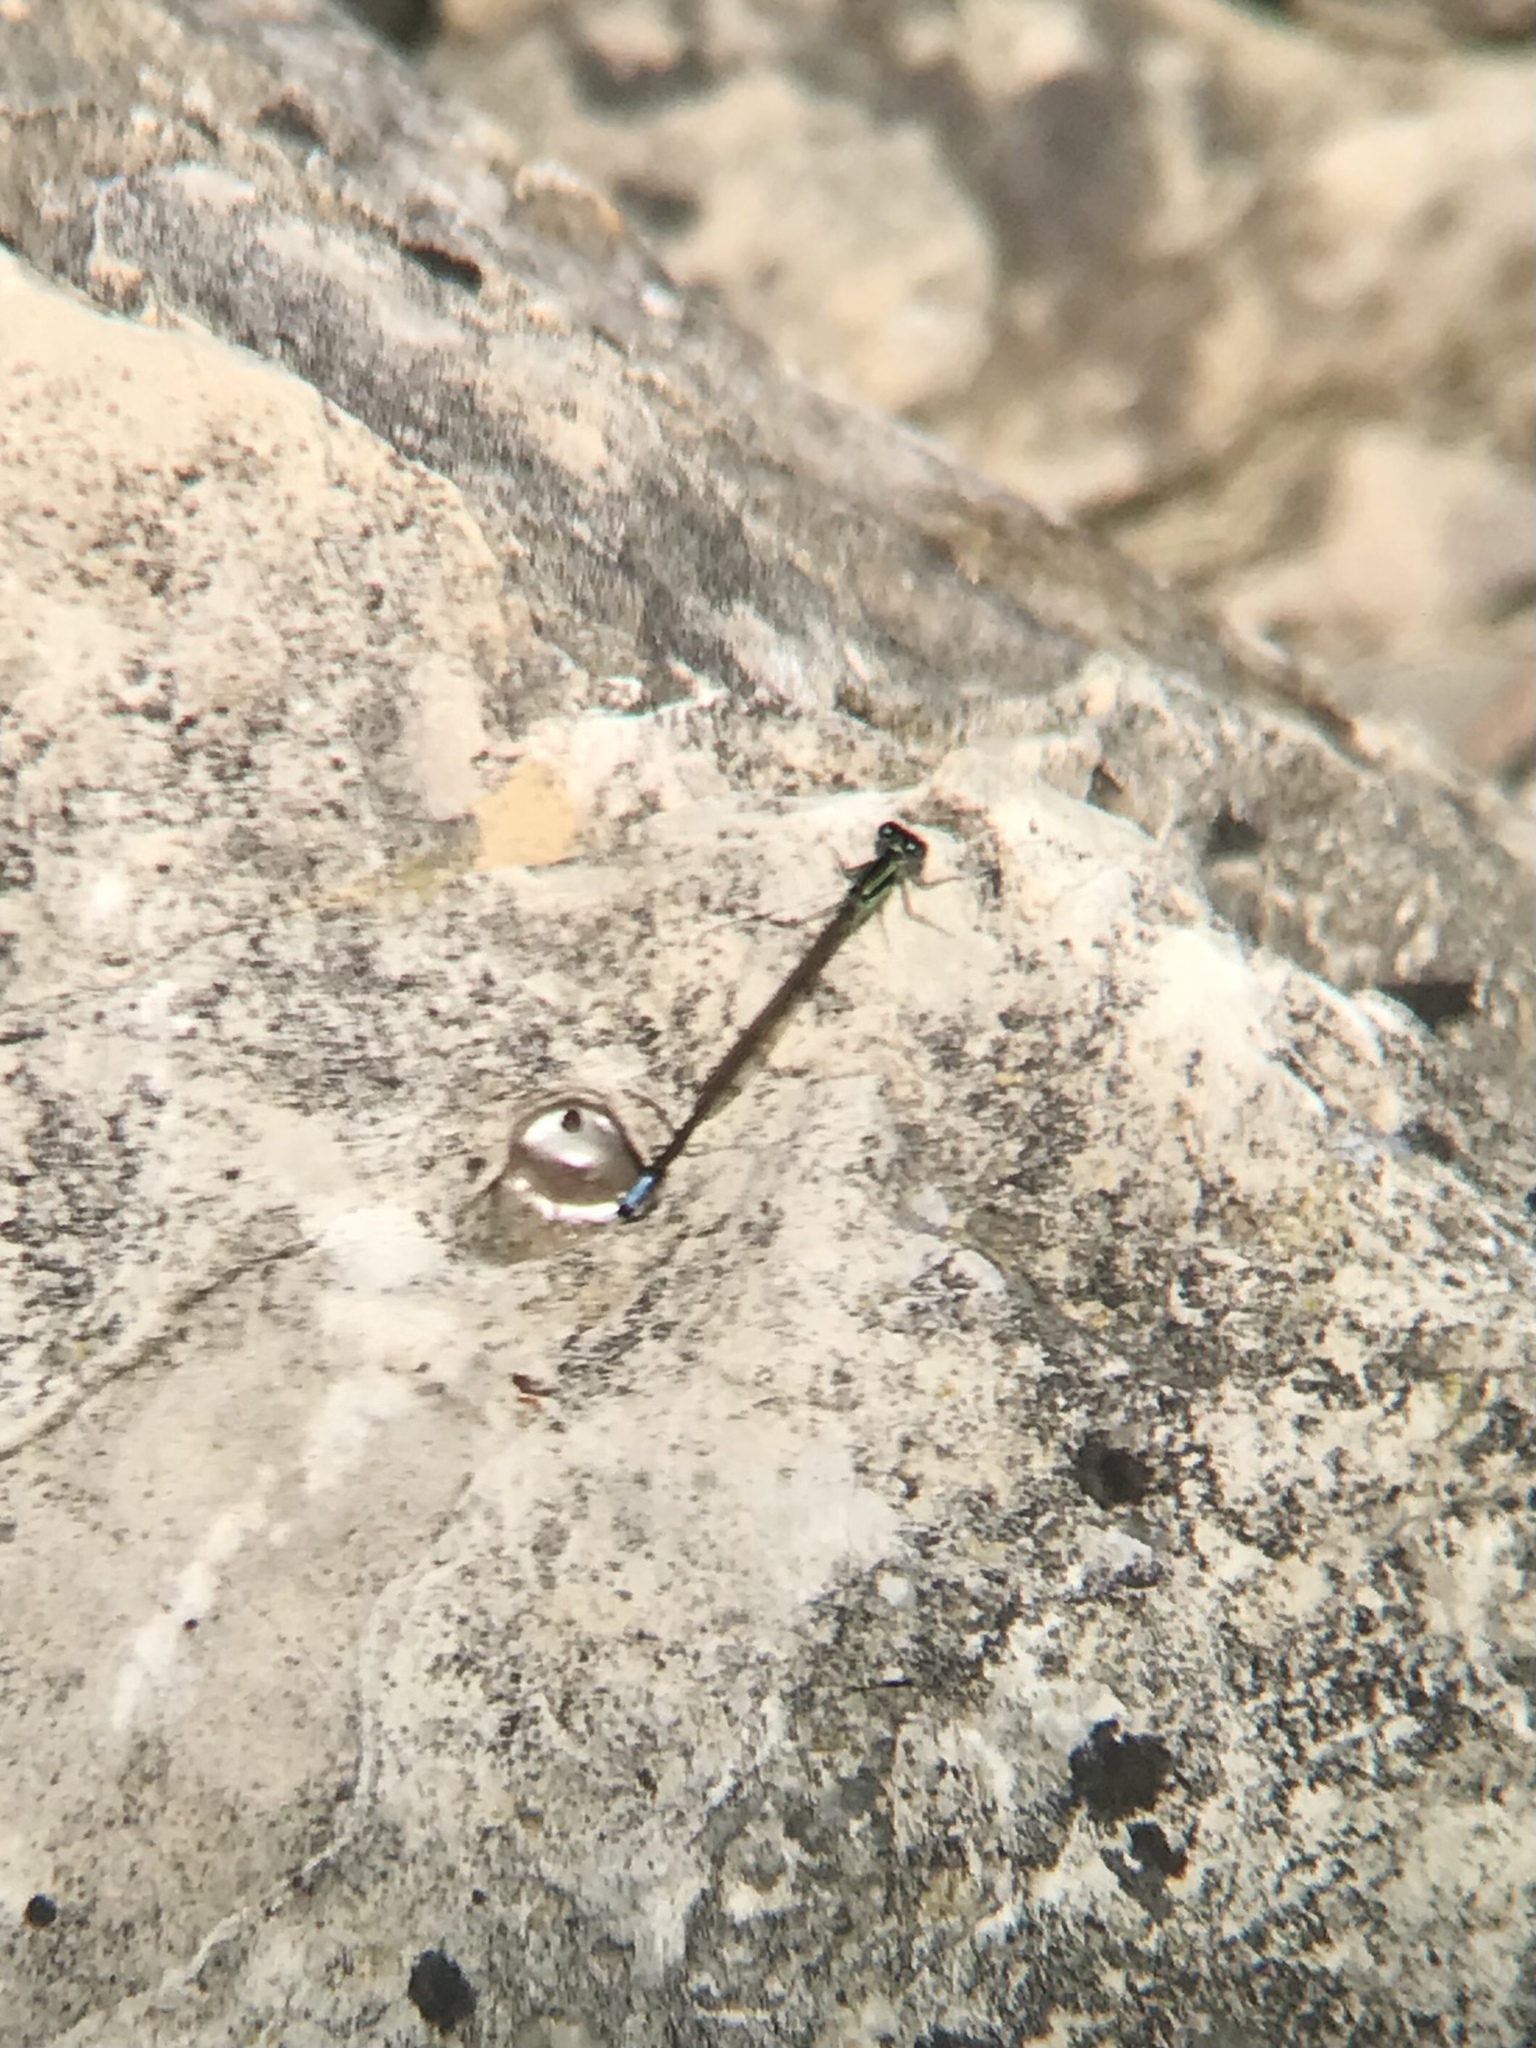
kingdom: Animalia
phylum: Arthropoda
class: Insecta
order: Odonata
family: Coenagrionidae
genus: Ischnura
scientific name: Ischnura verticalis
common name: Eastern forktail
